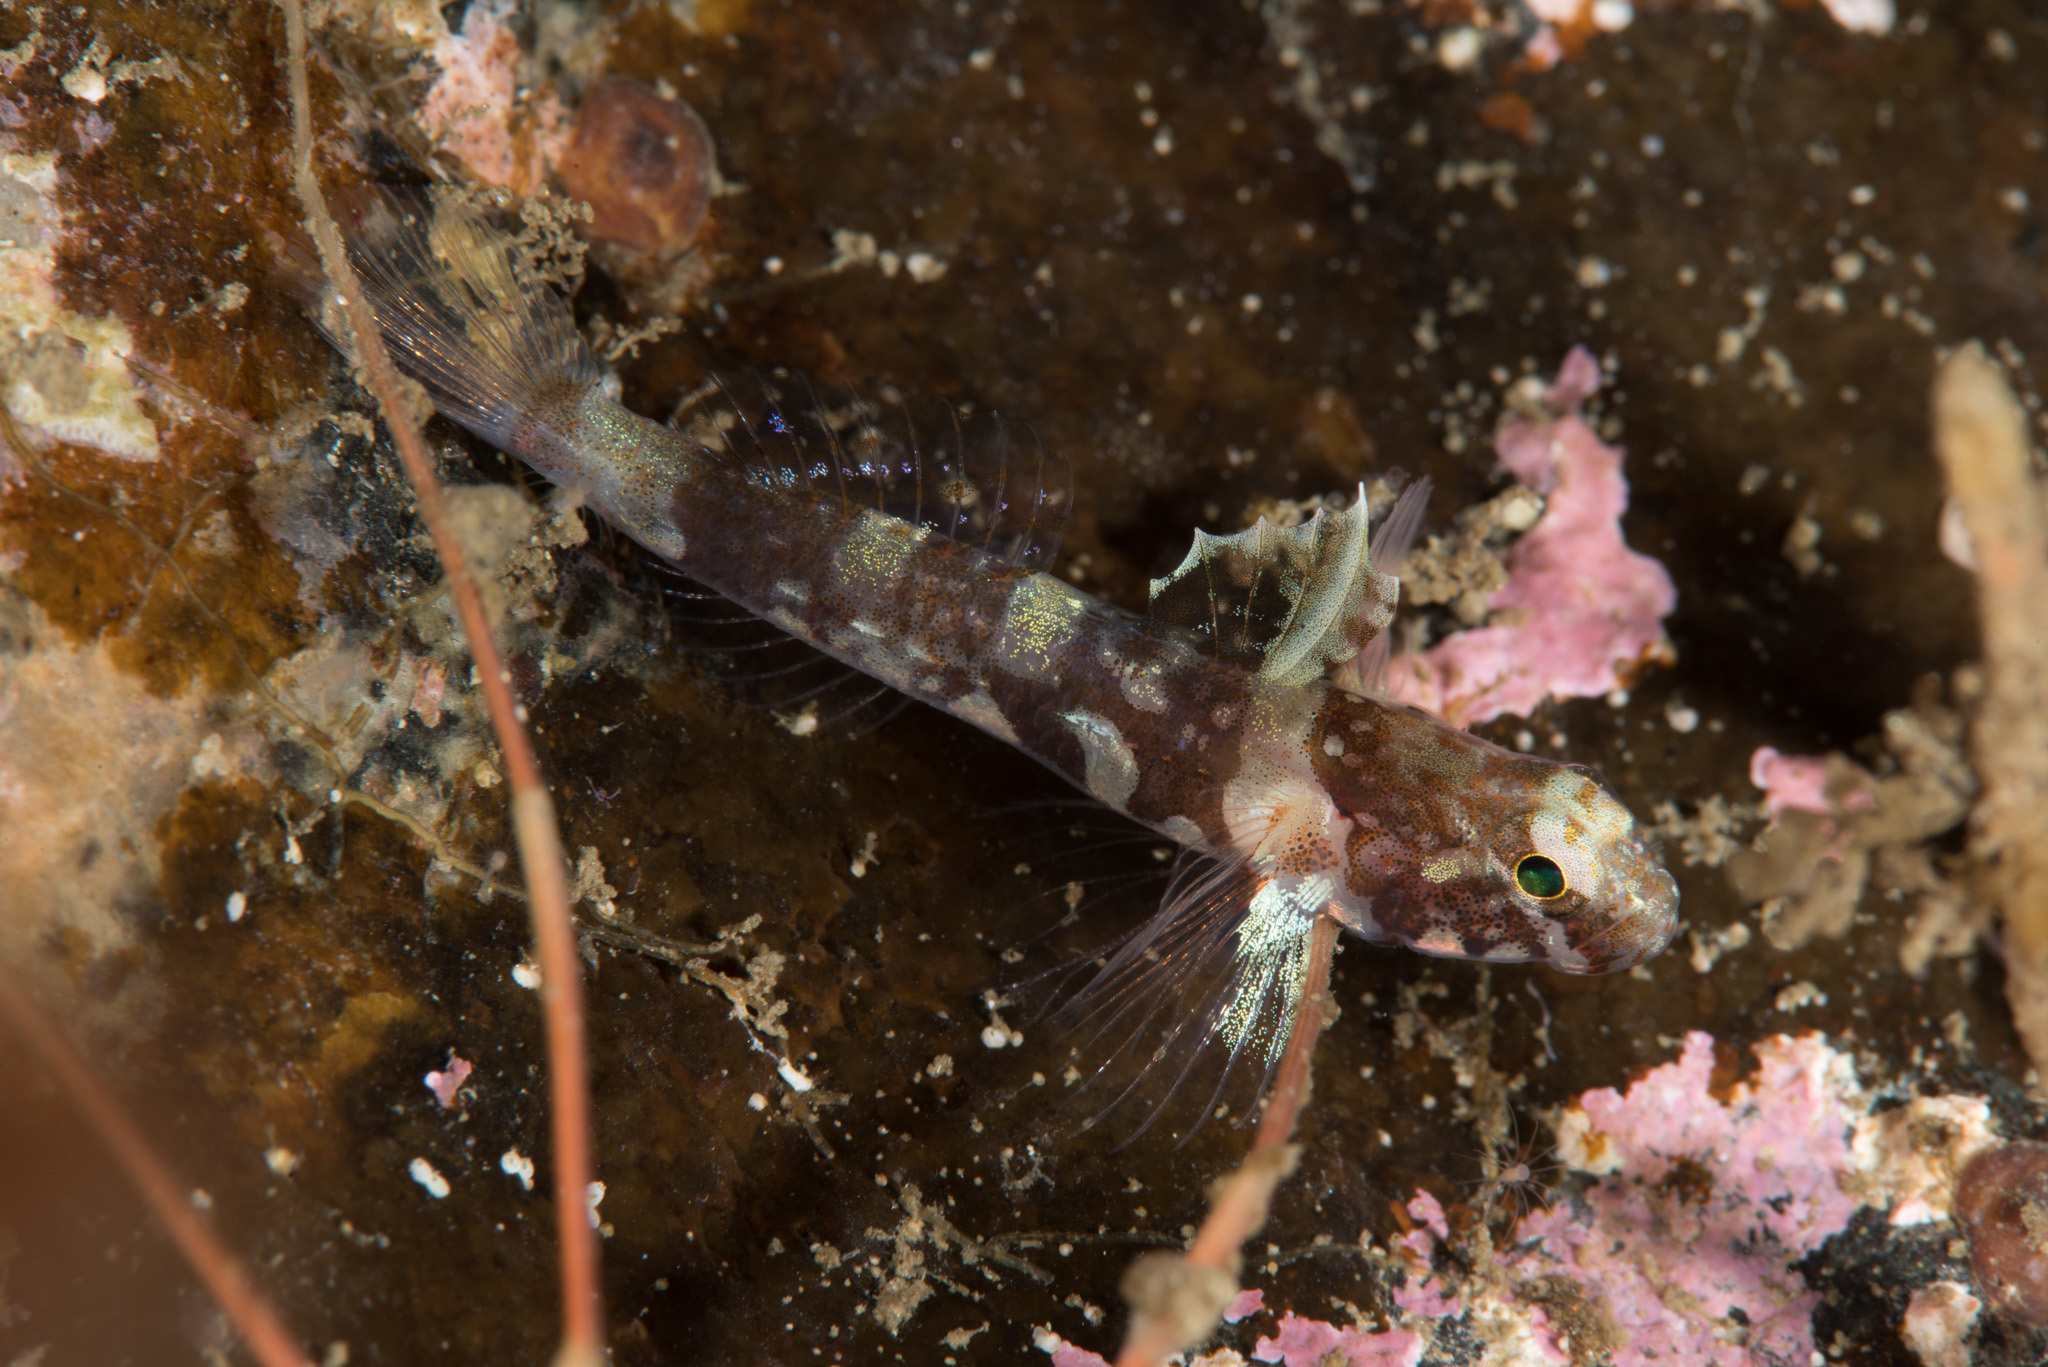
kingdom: Animalia
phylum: Chordata
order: Perciformes
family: Gobiidae
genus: Lebetus
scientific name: Lebetus scorpioides
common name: Diminutive goby
